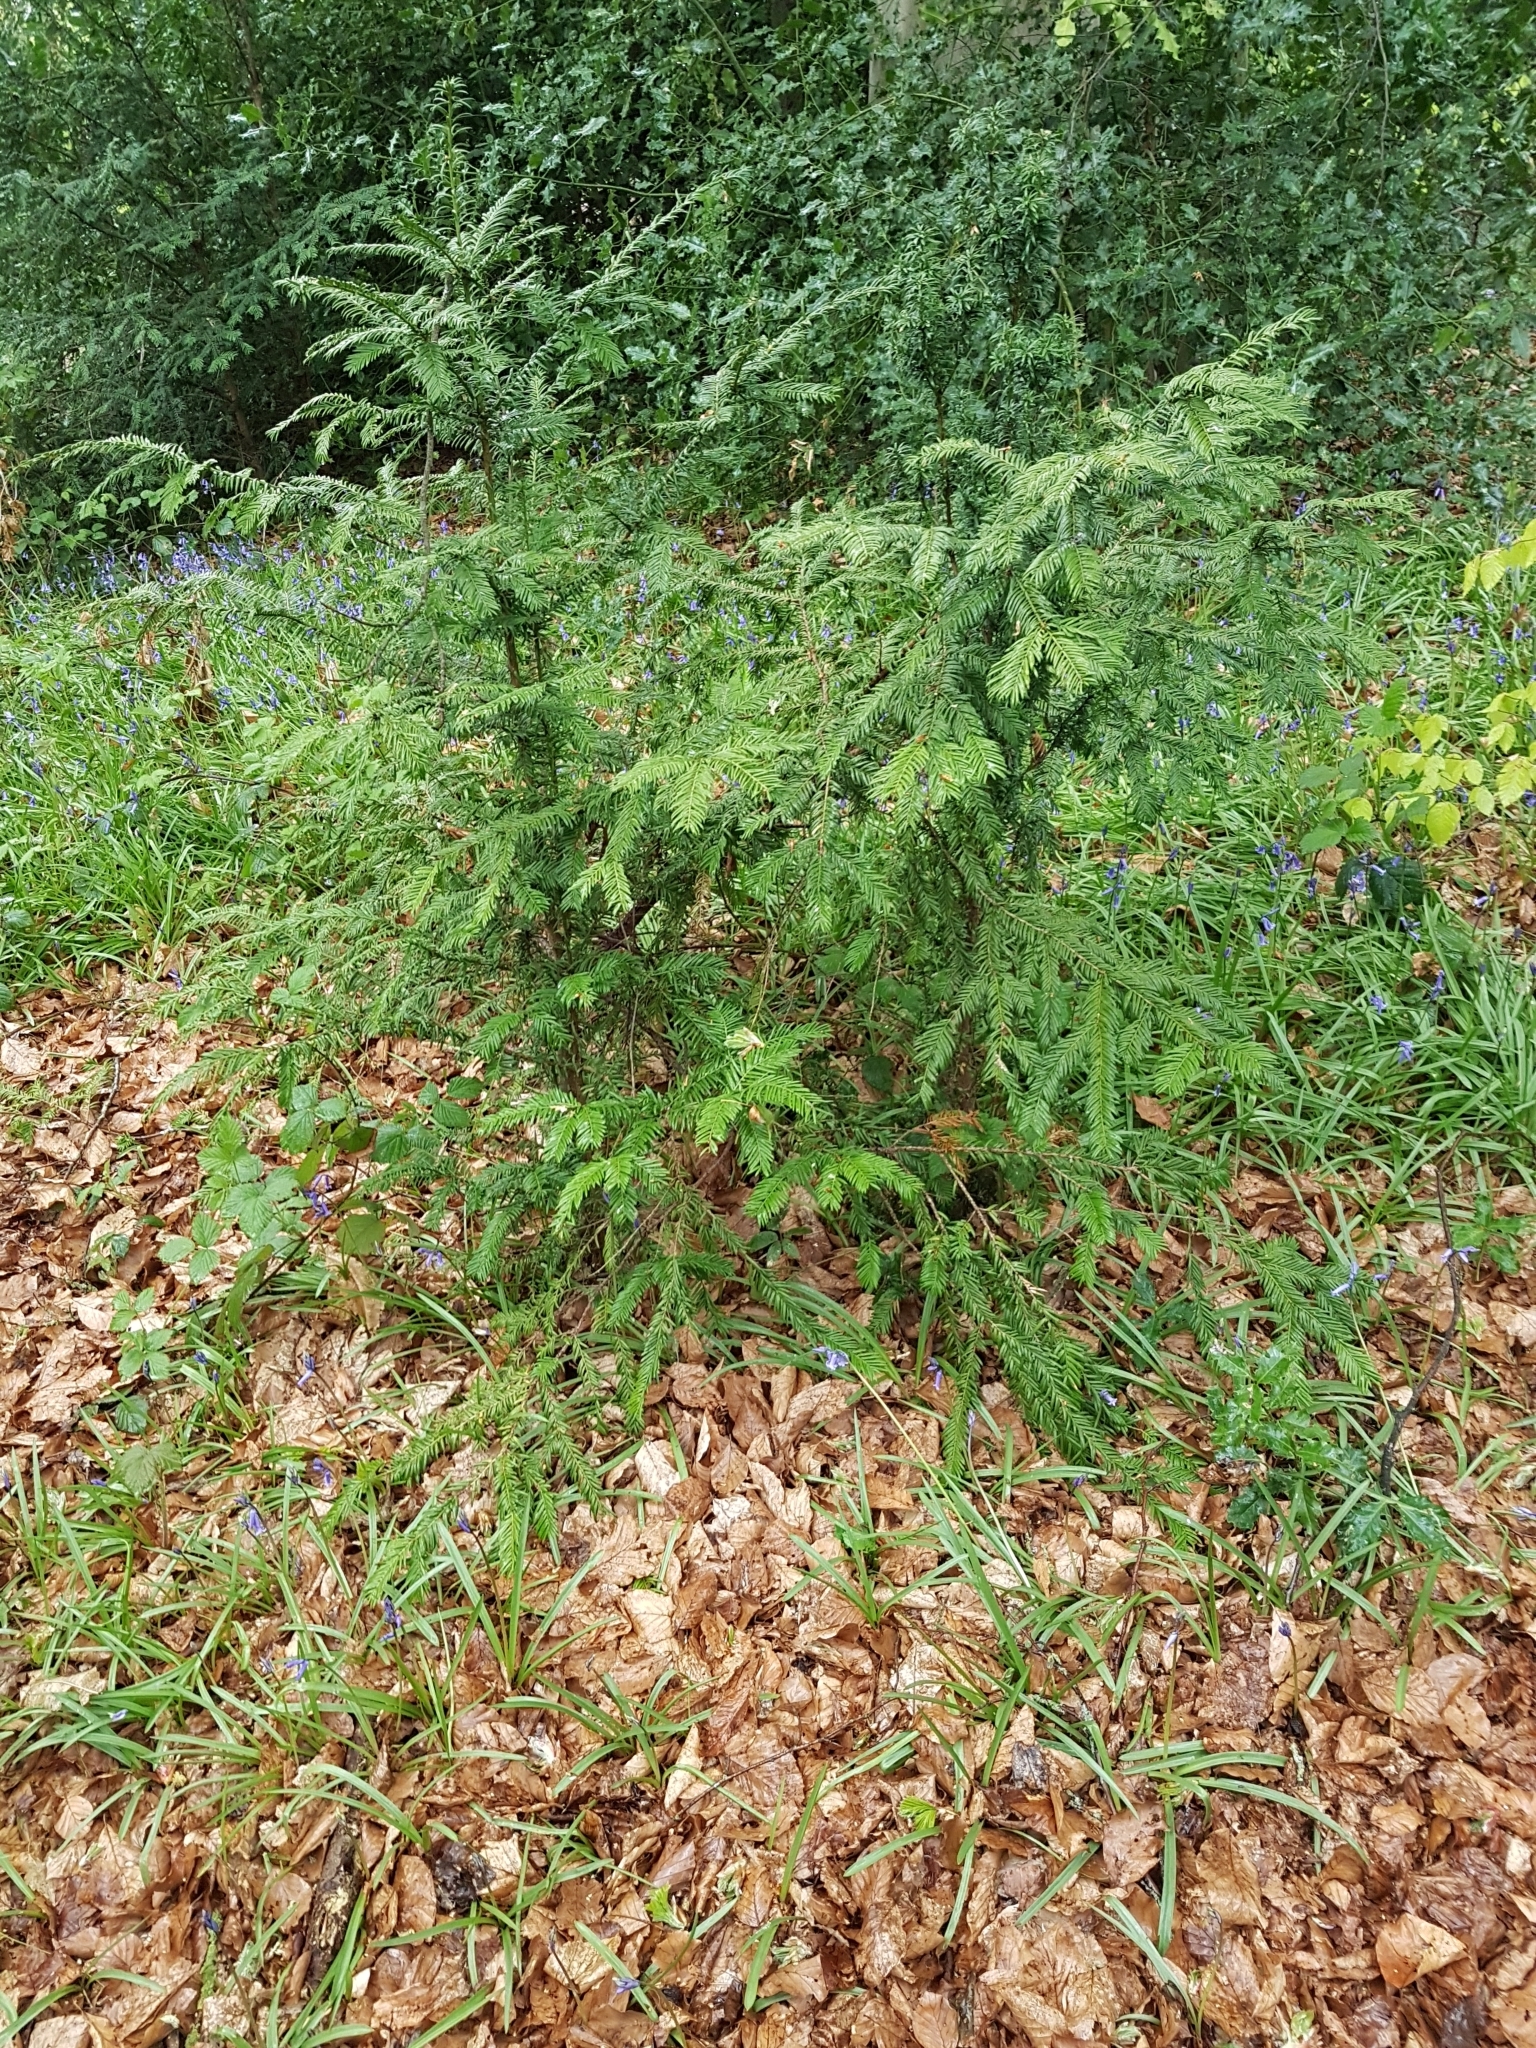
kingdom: Plantae
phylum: Tracheophyta
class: Pinopsida
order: Pinales
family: Taxaceae
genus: Taxus
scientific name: Taxus baccata
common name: Yew
